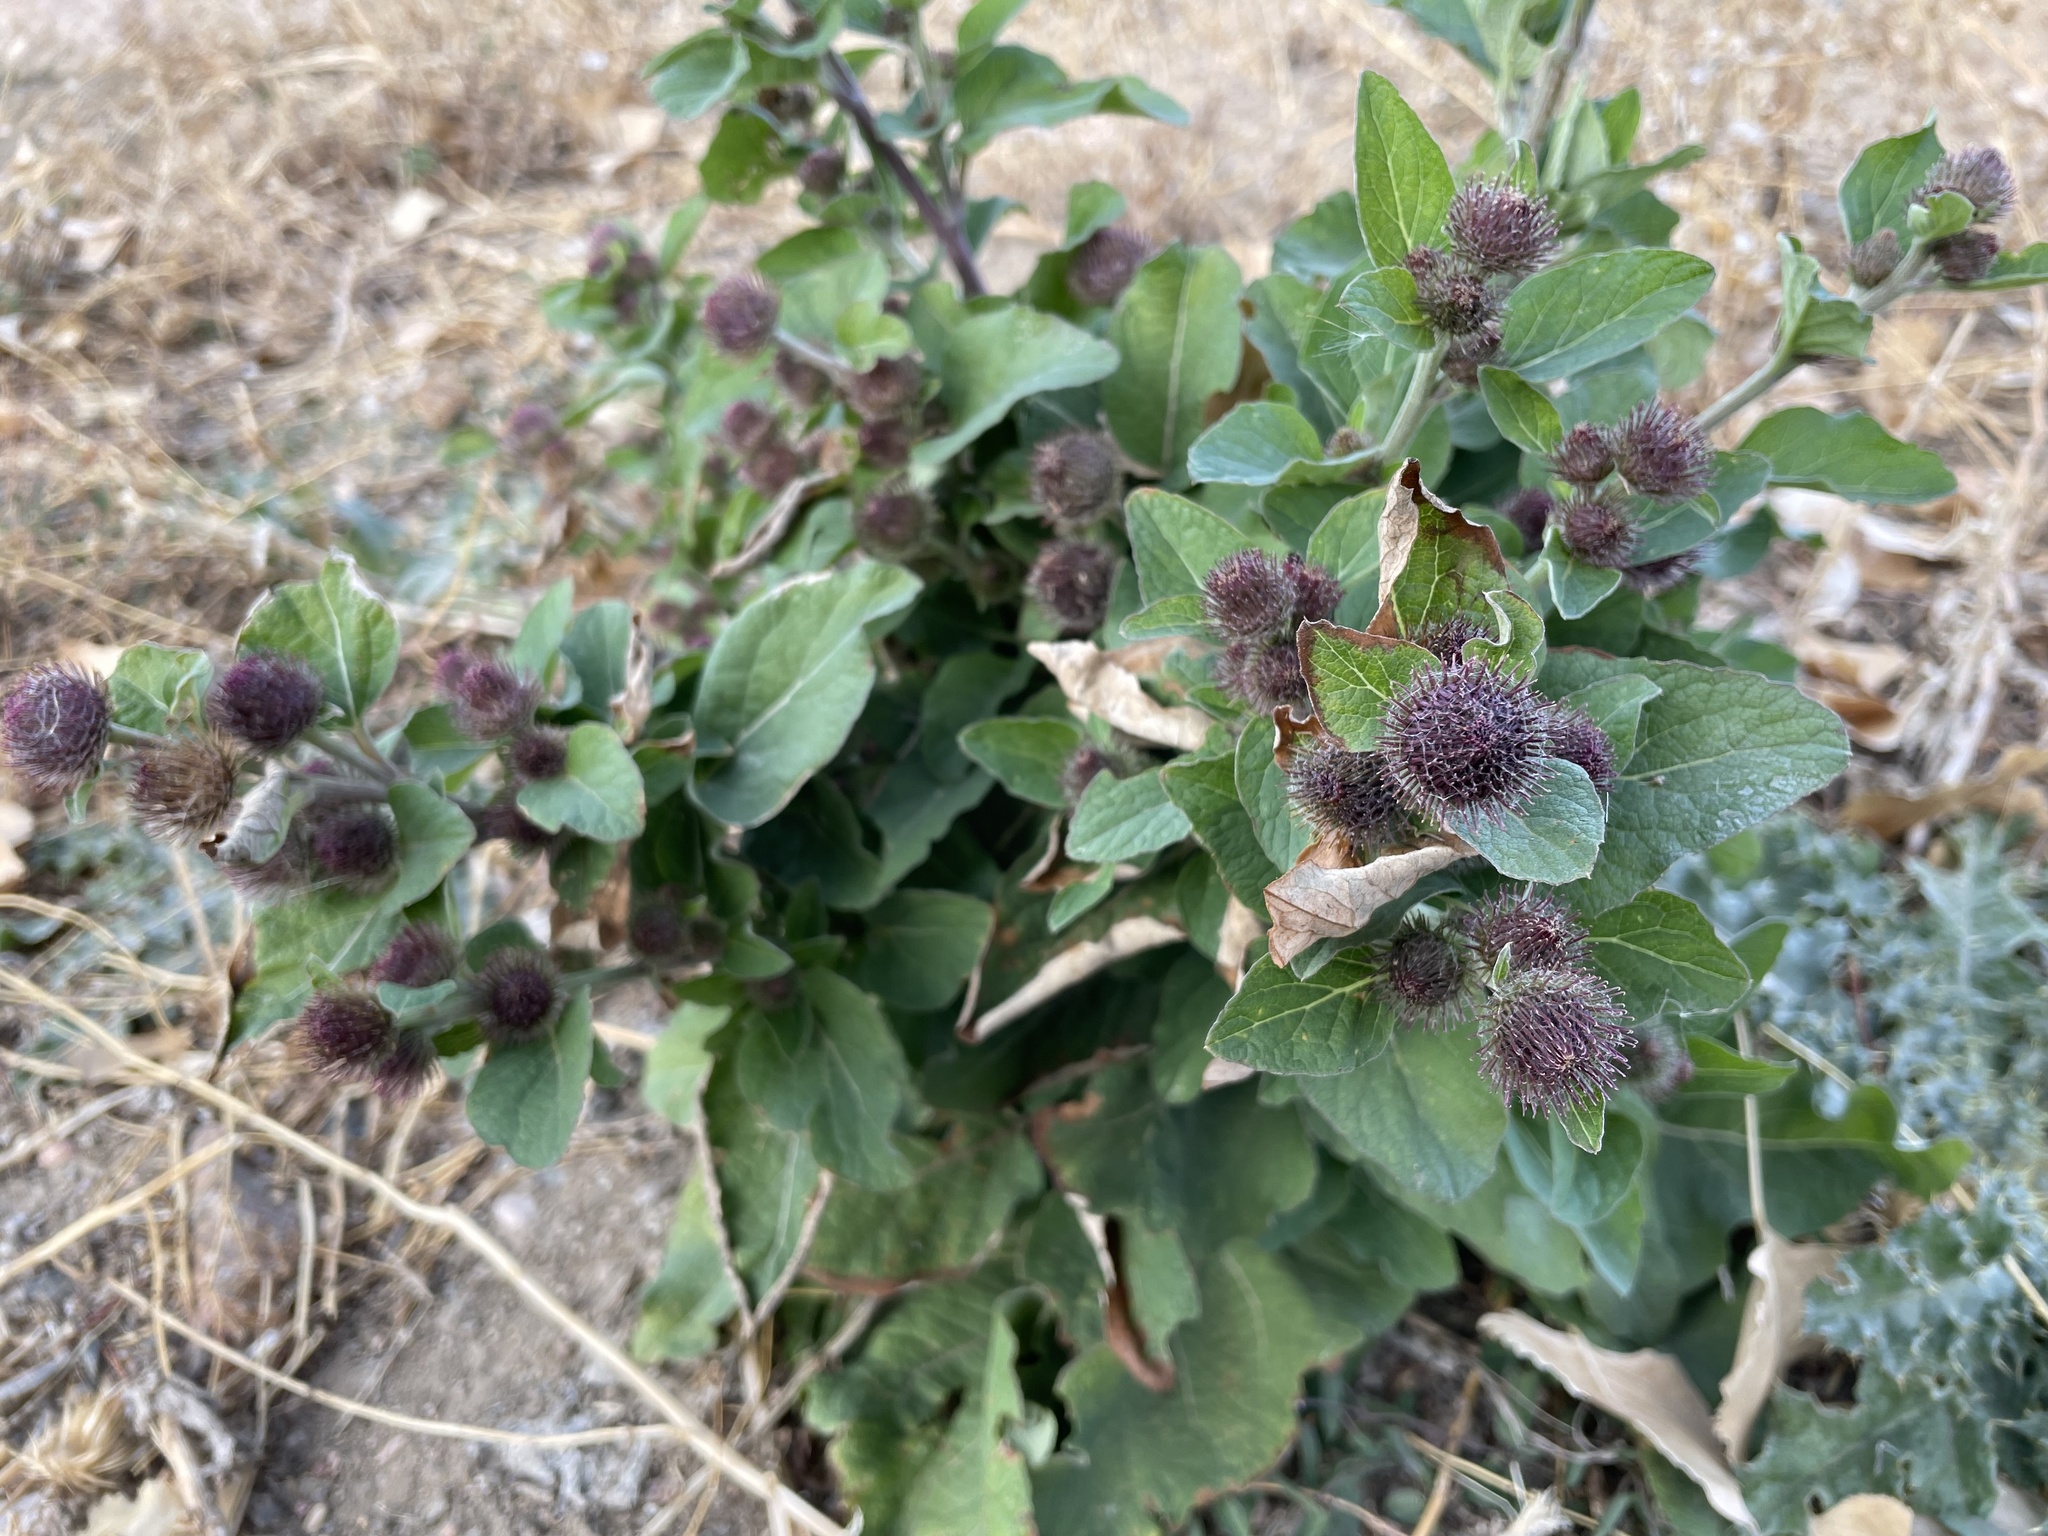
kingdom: Plantae
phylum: Tracheophyta
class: Magnoliopsida
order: Asterales
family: Asteraceae
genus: Arctium
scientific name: Arctium minus
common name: Lesser burdock
